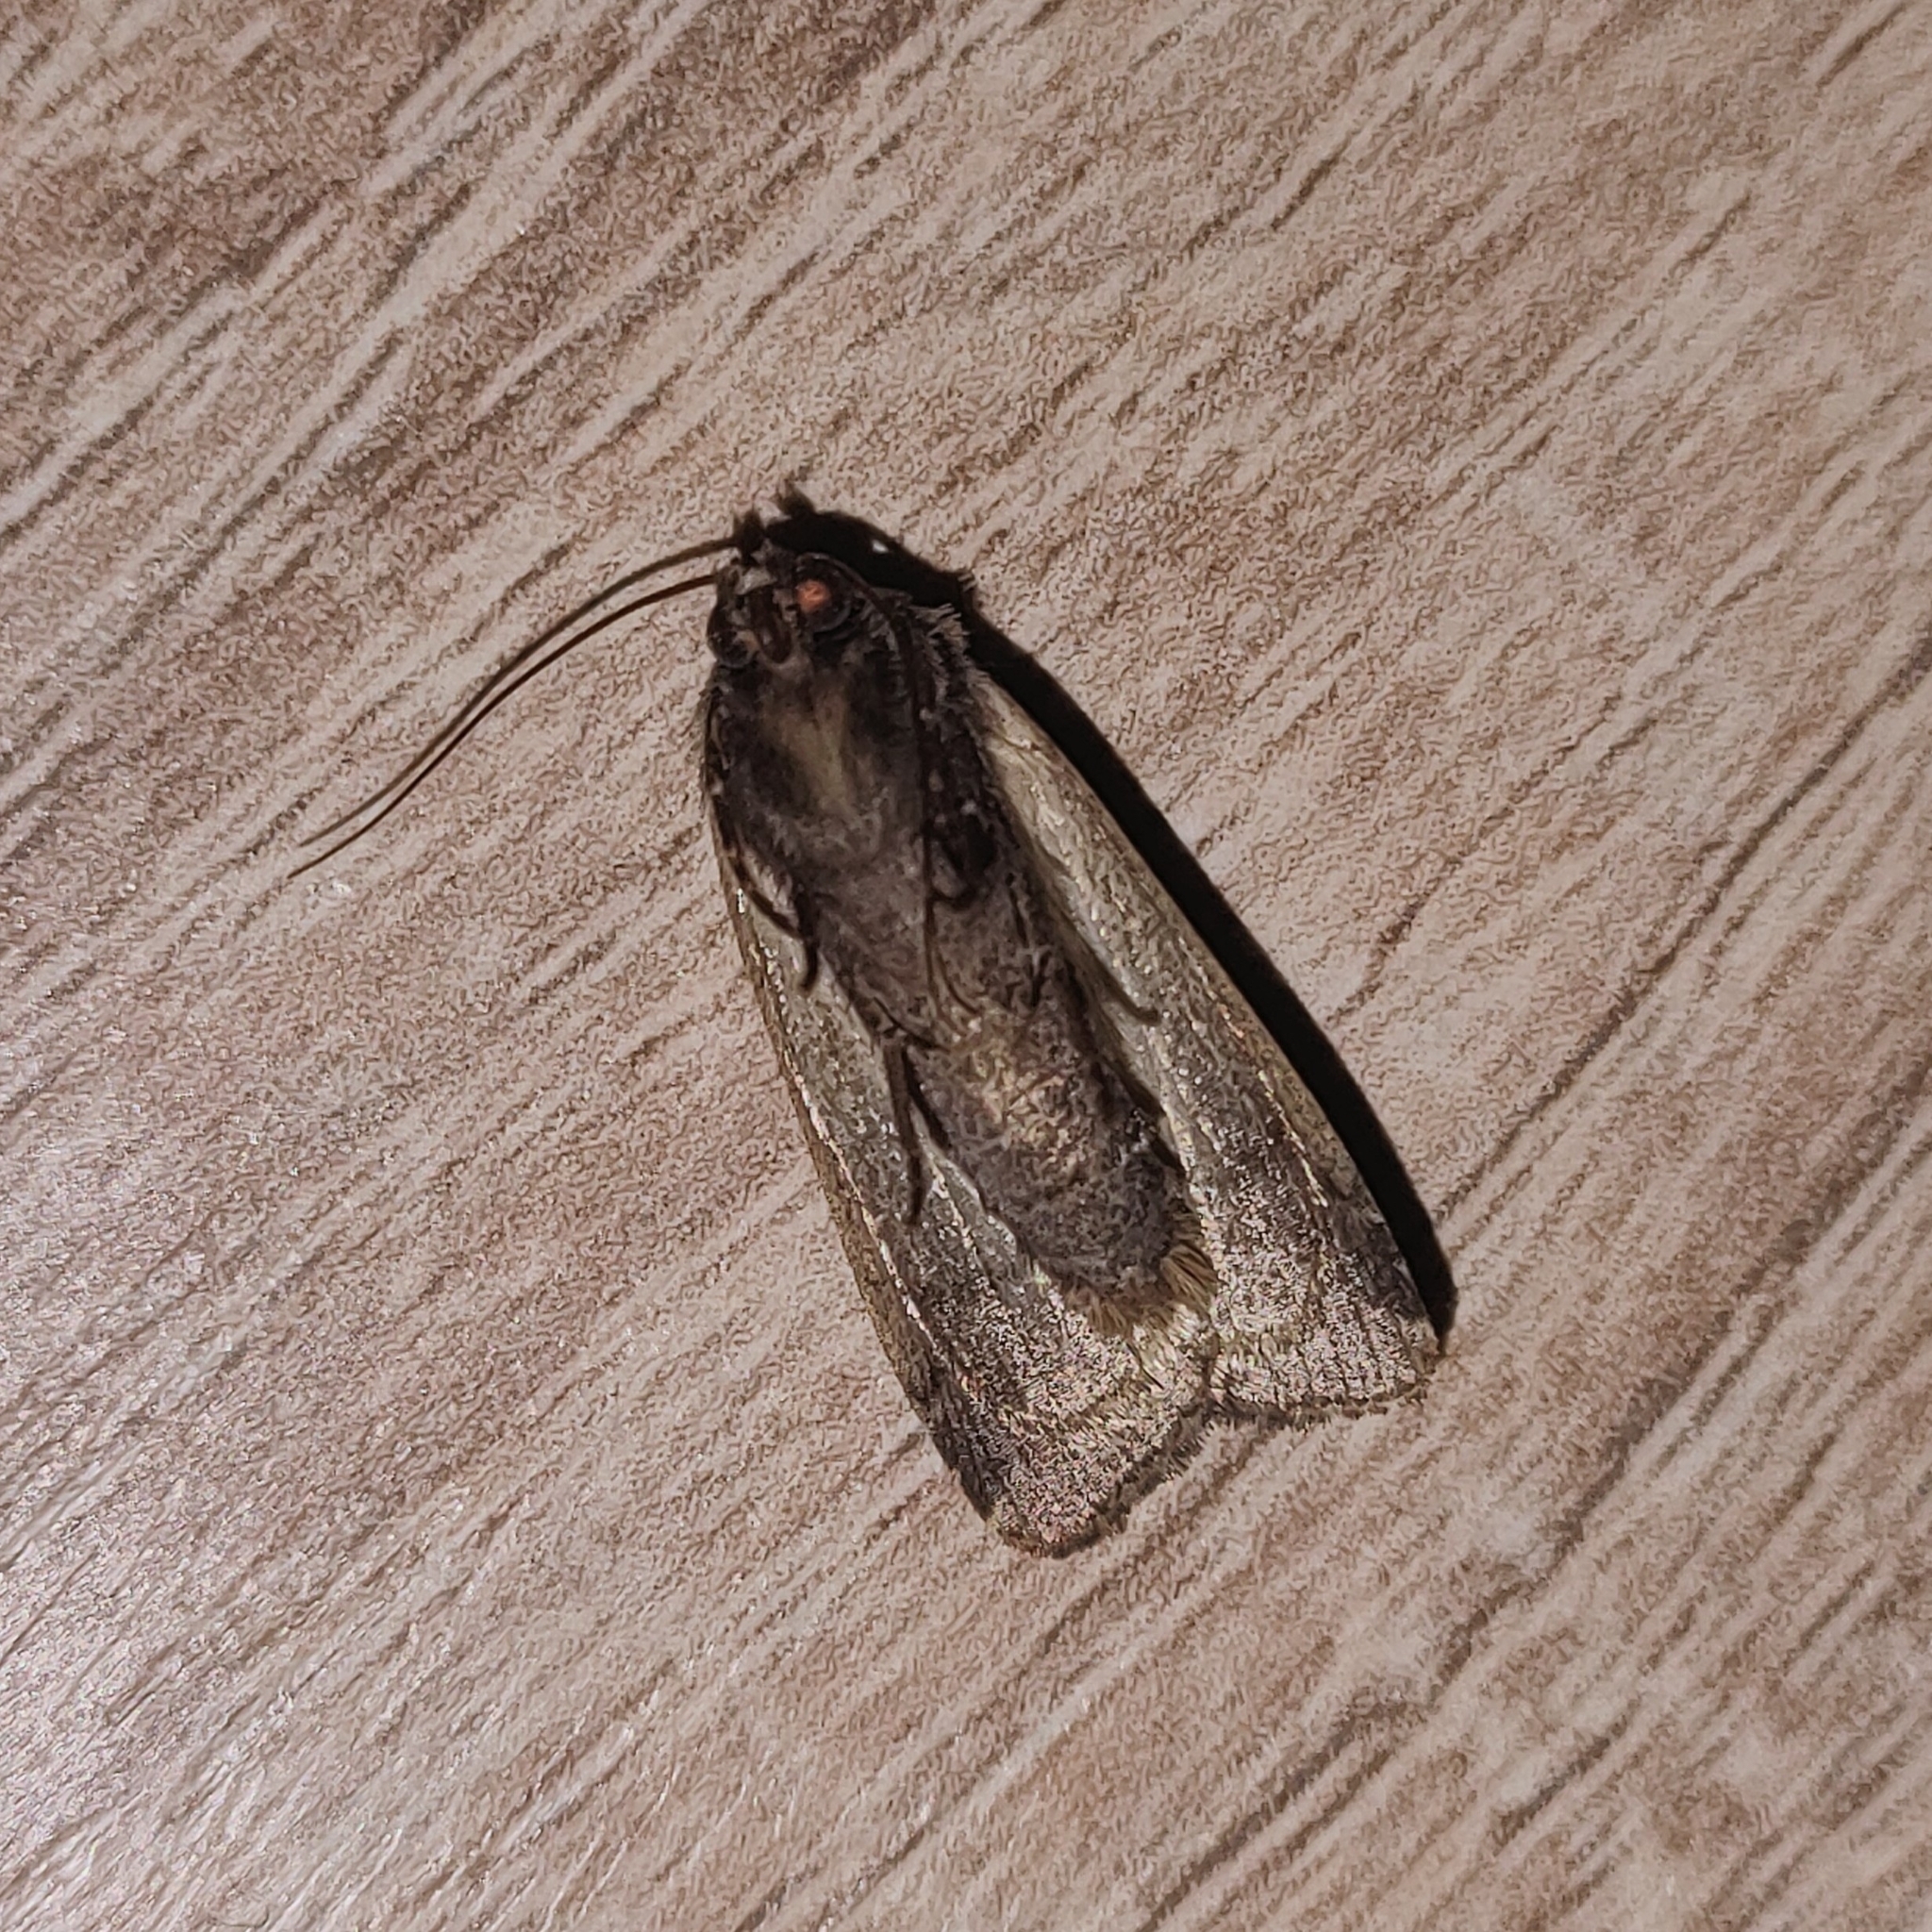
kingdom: Animalia
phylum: Arthropoda
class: Insecta
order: Lepidoptera
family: Noctuidae
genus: Xestia
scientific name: Xestia c-nigrum
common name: Setaceous hebrew character
